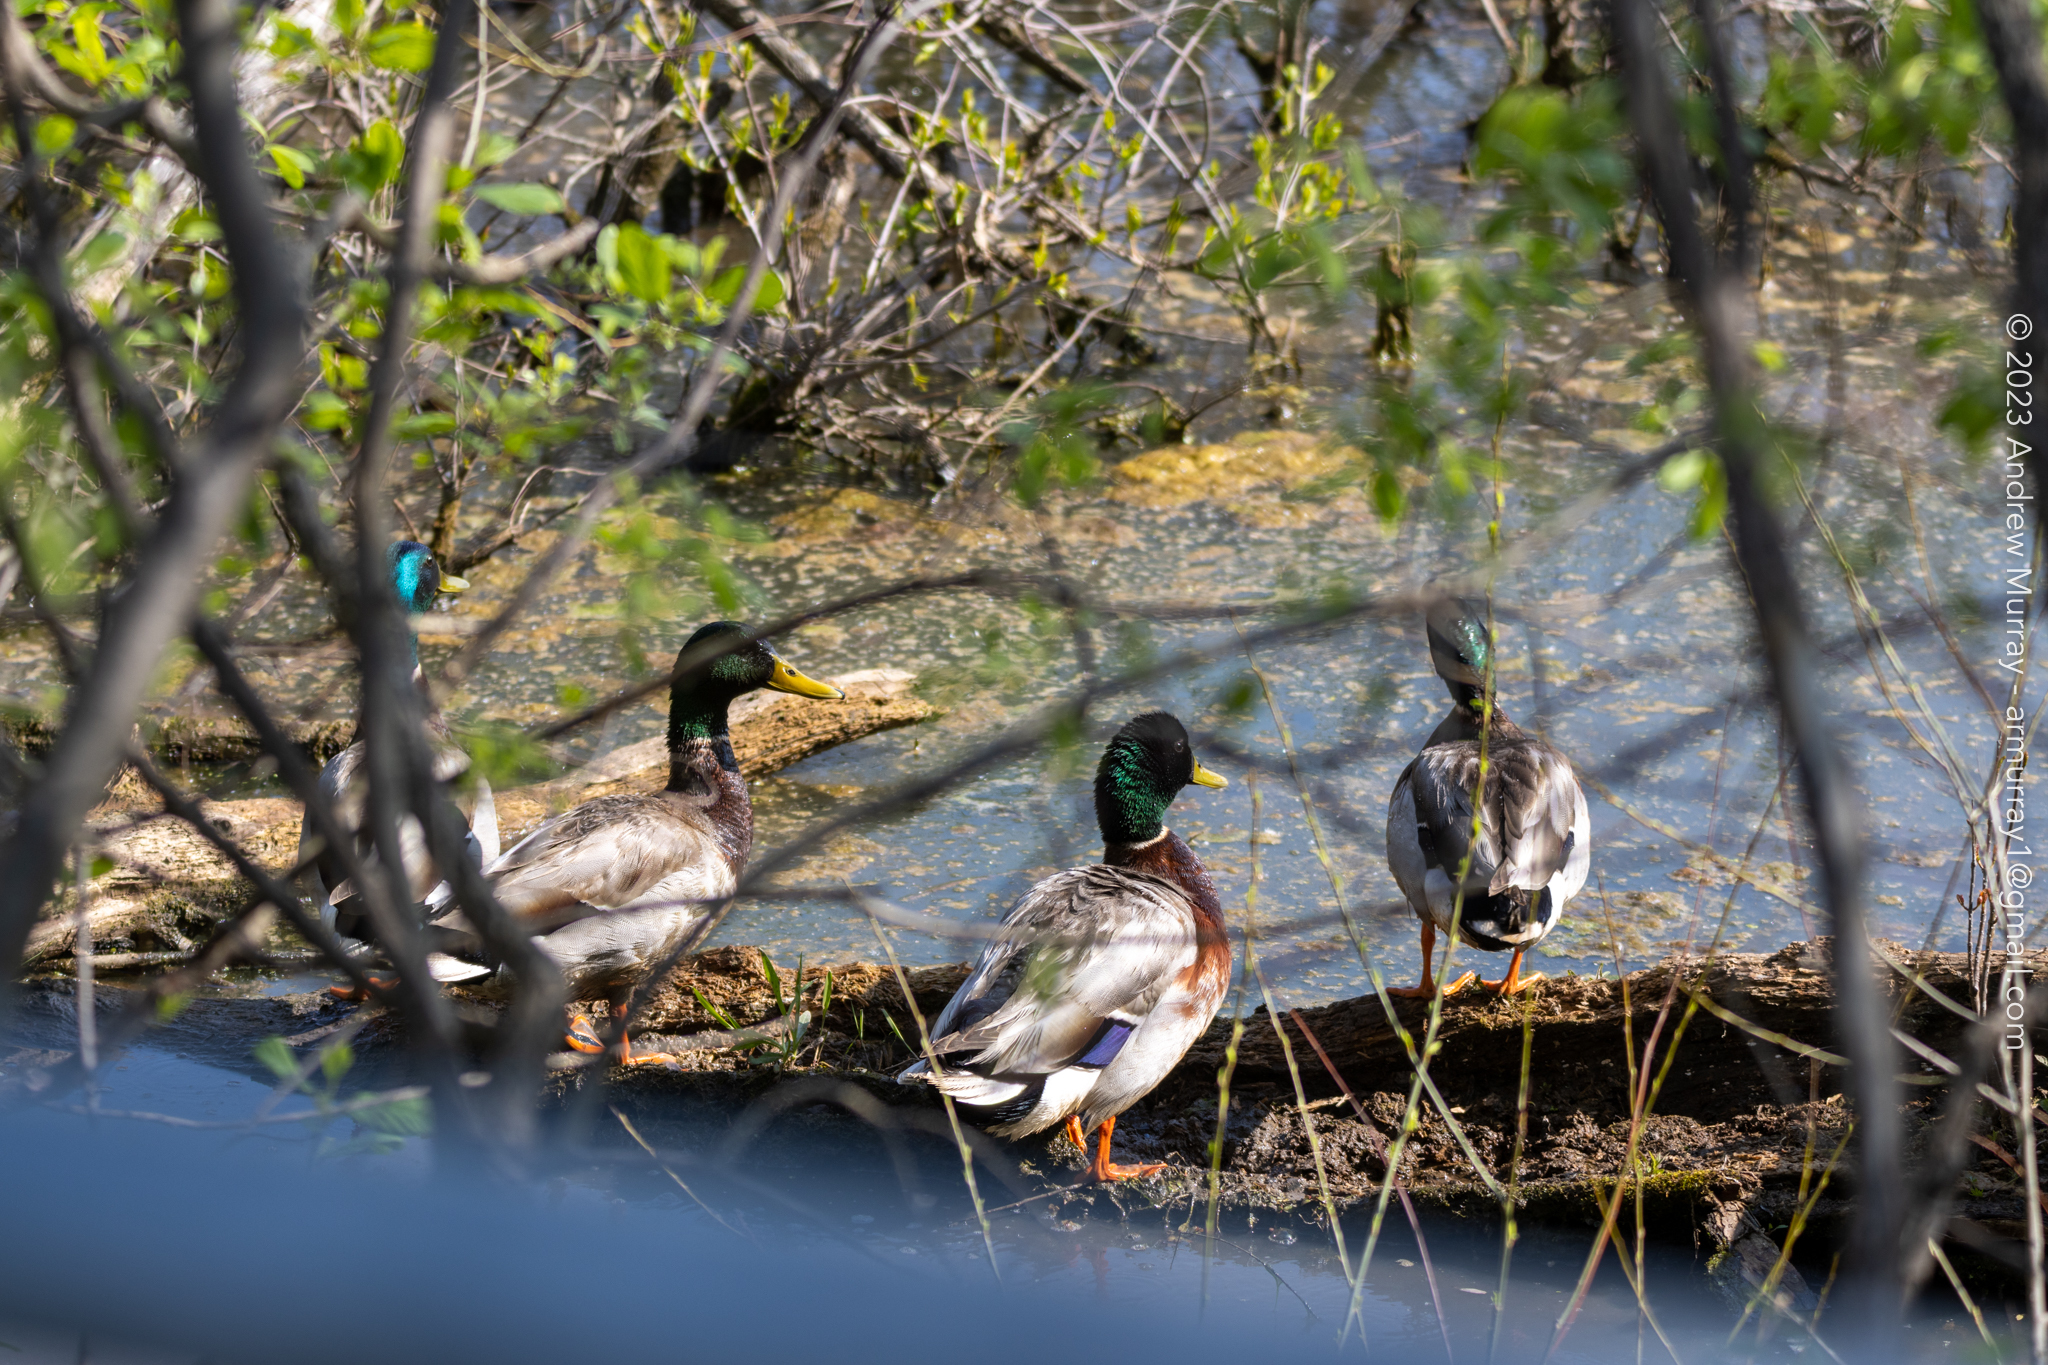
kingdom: Animalia
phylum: Chordata
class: Aves
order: Anseriformes
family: Anatidae
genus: Anas
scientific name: Anas platyrhynchos
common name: Mallard
